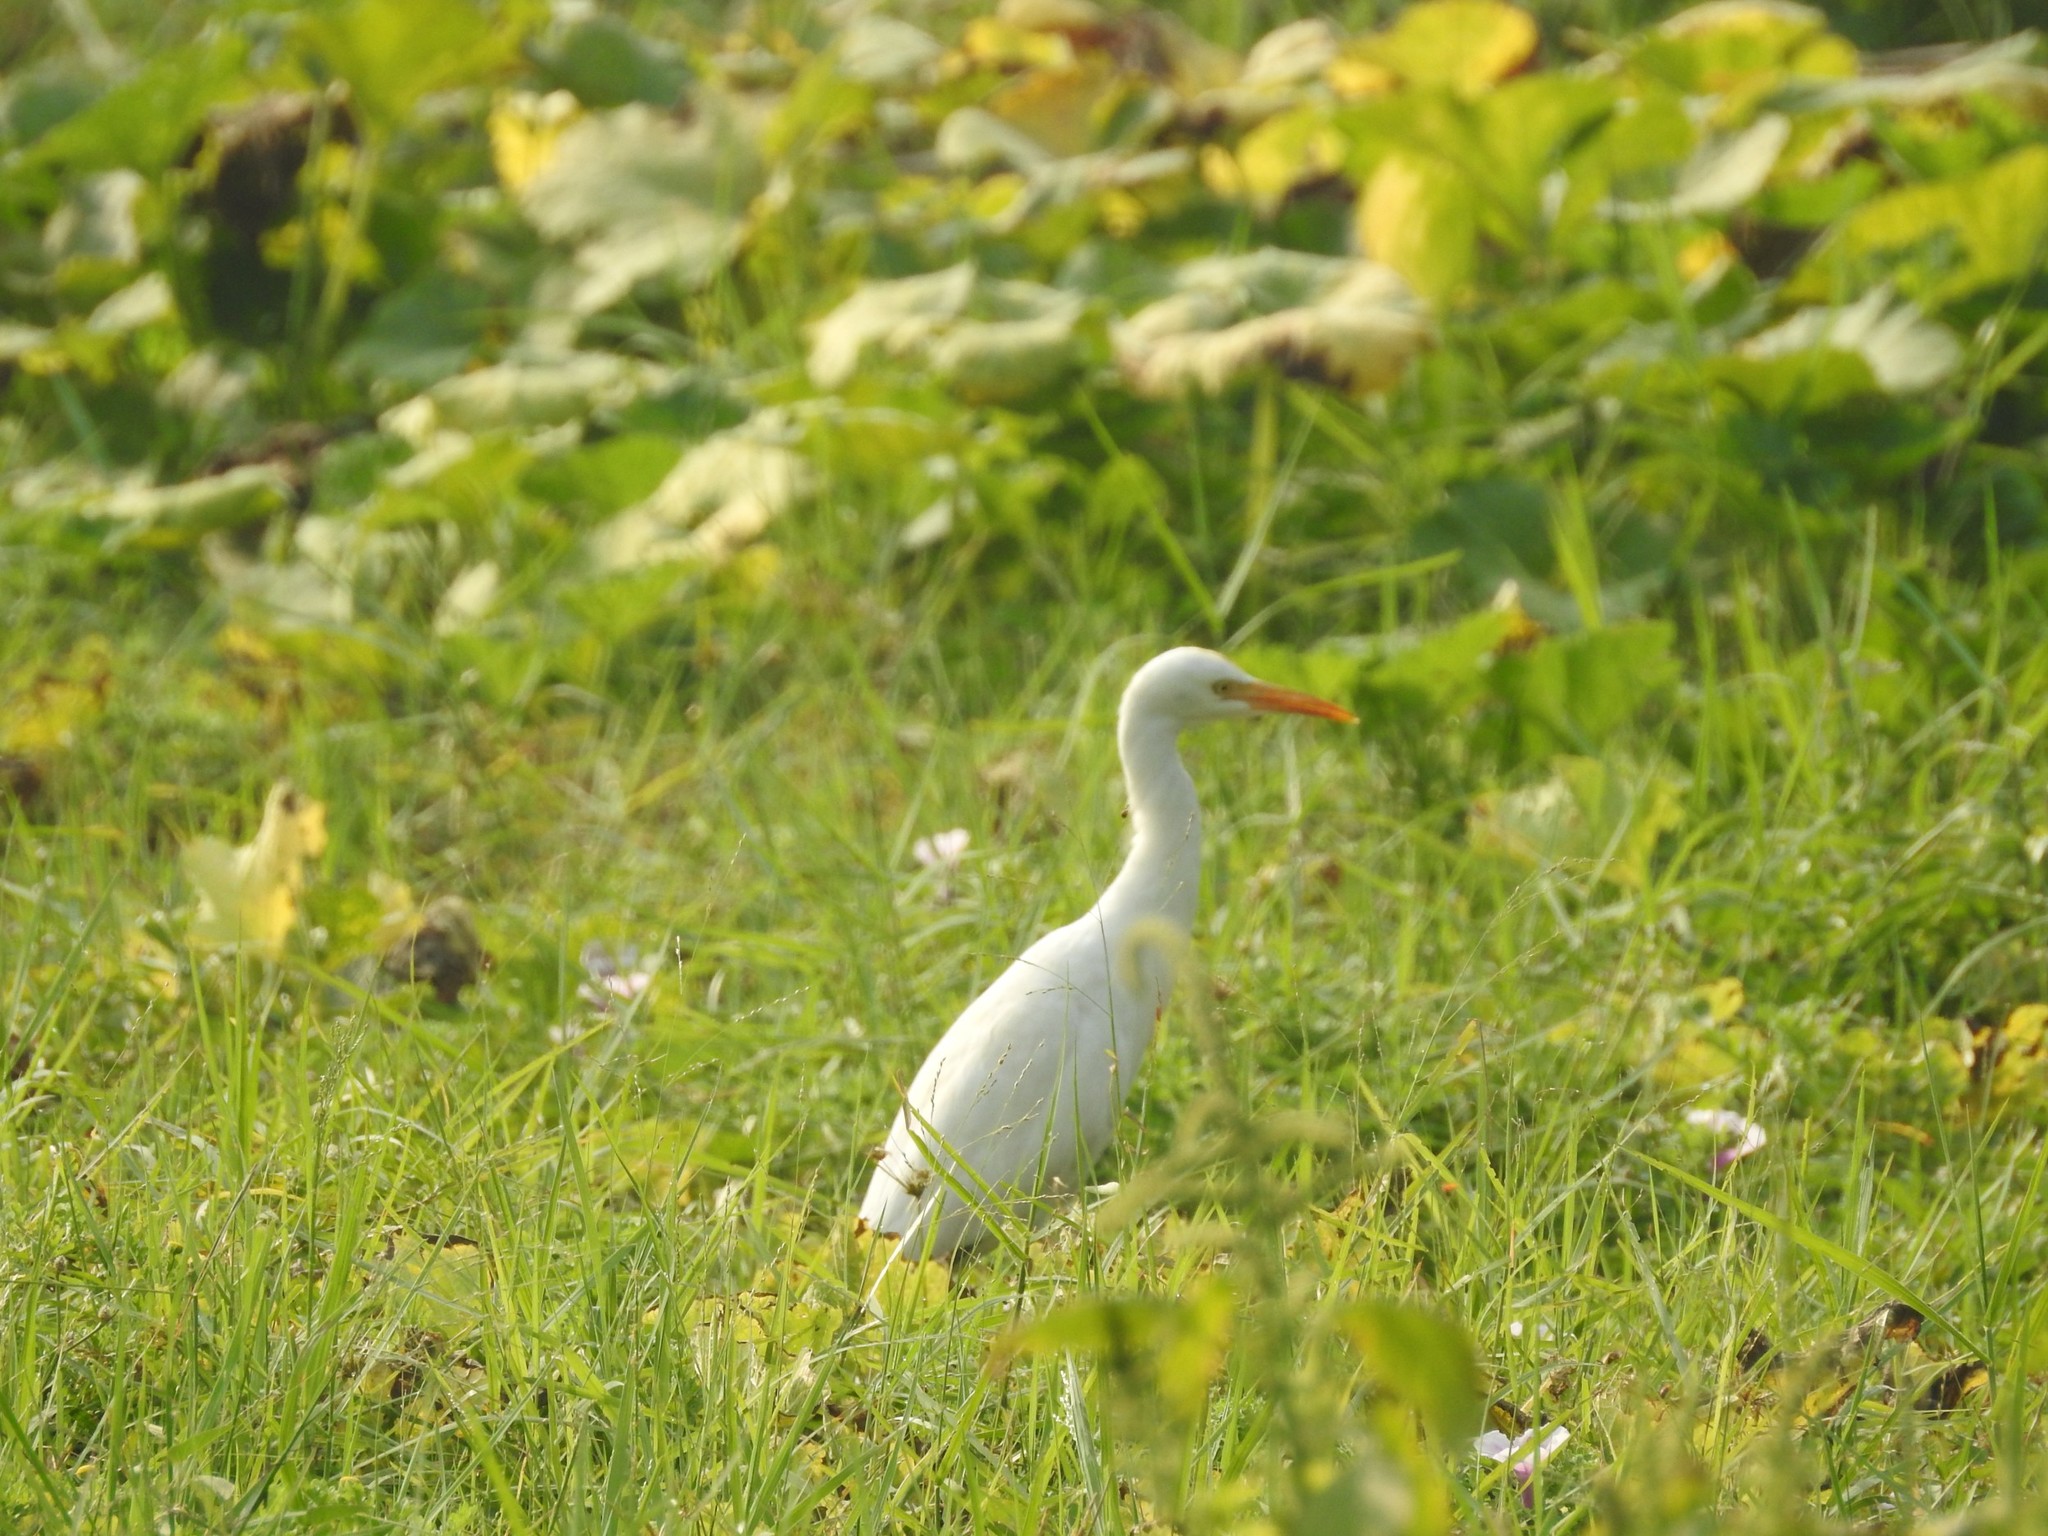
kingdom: Animalia
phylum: Chordata
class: Aves
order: Pelecaniformes
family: Ardeidae
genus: Bubulcus
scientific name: Bubulcus coromandus
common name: Eastern cattle egret
